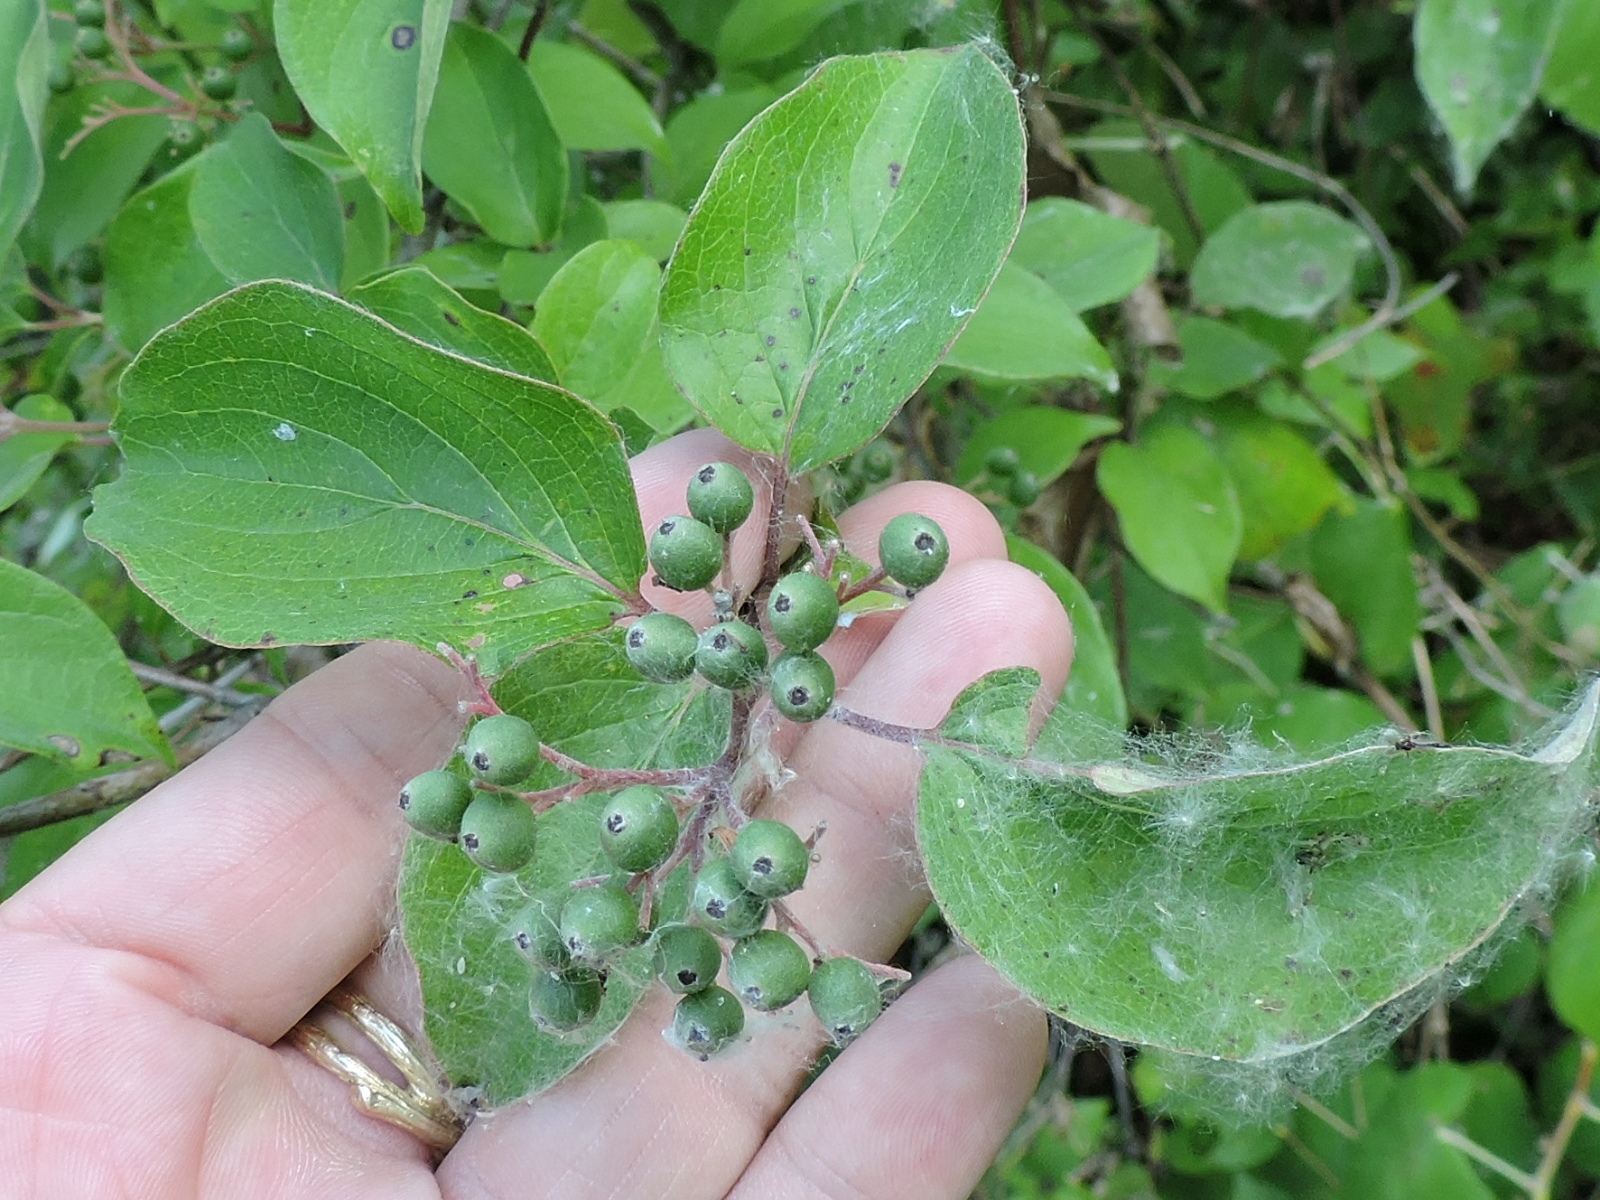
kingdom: Plantae
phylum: Tracheophyta
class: Magnoliopsida
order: Cornales
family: Cornaceae
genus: Cornus
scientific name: Cornus drummondii
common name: Rough-leaf dogwood
